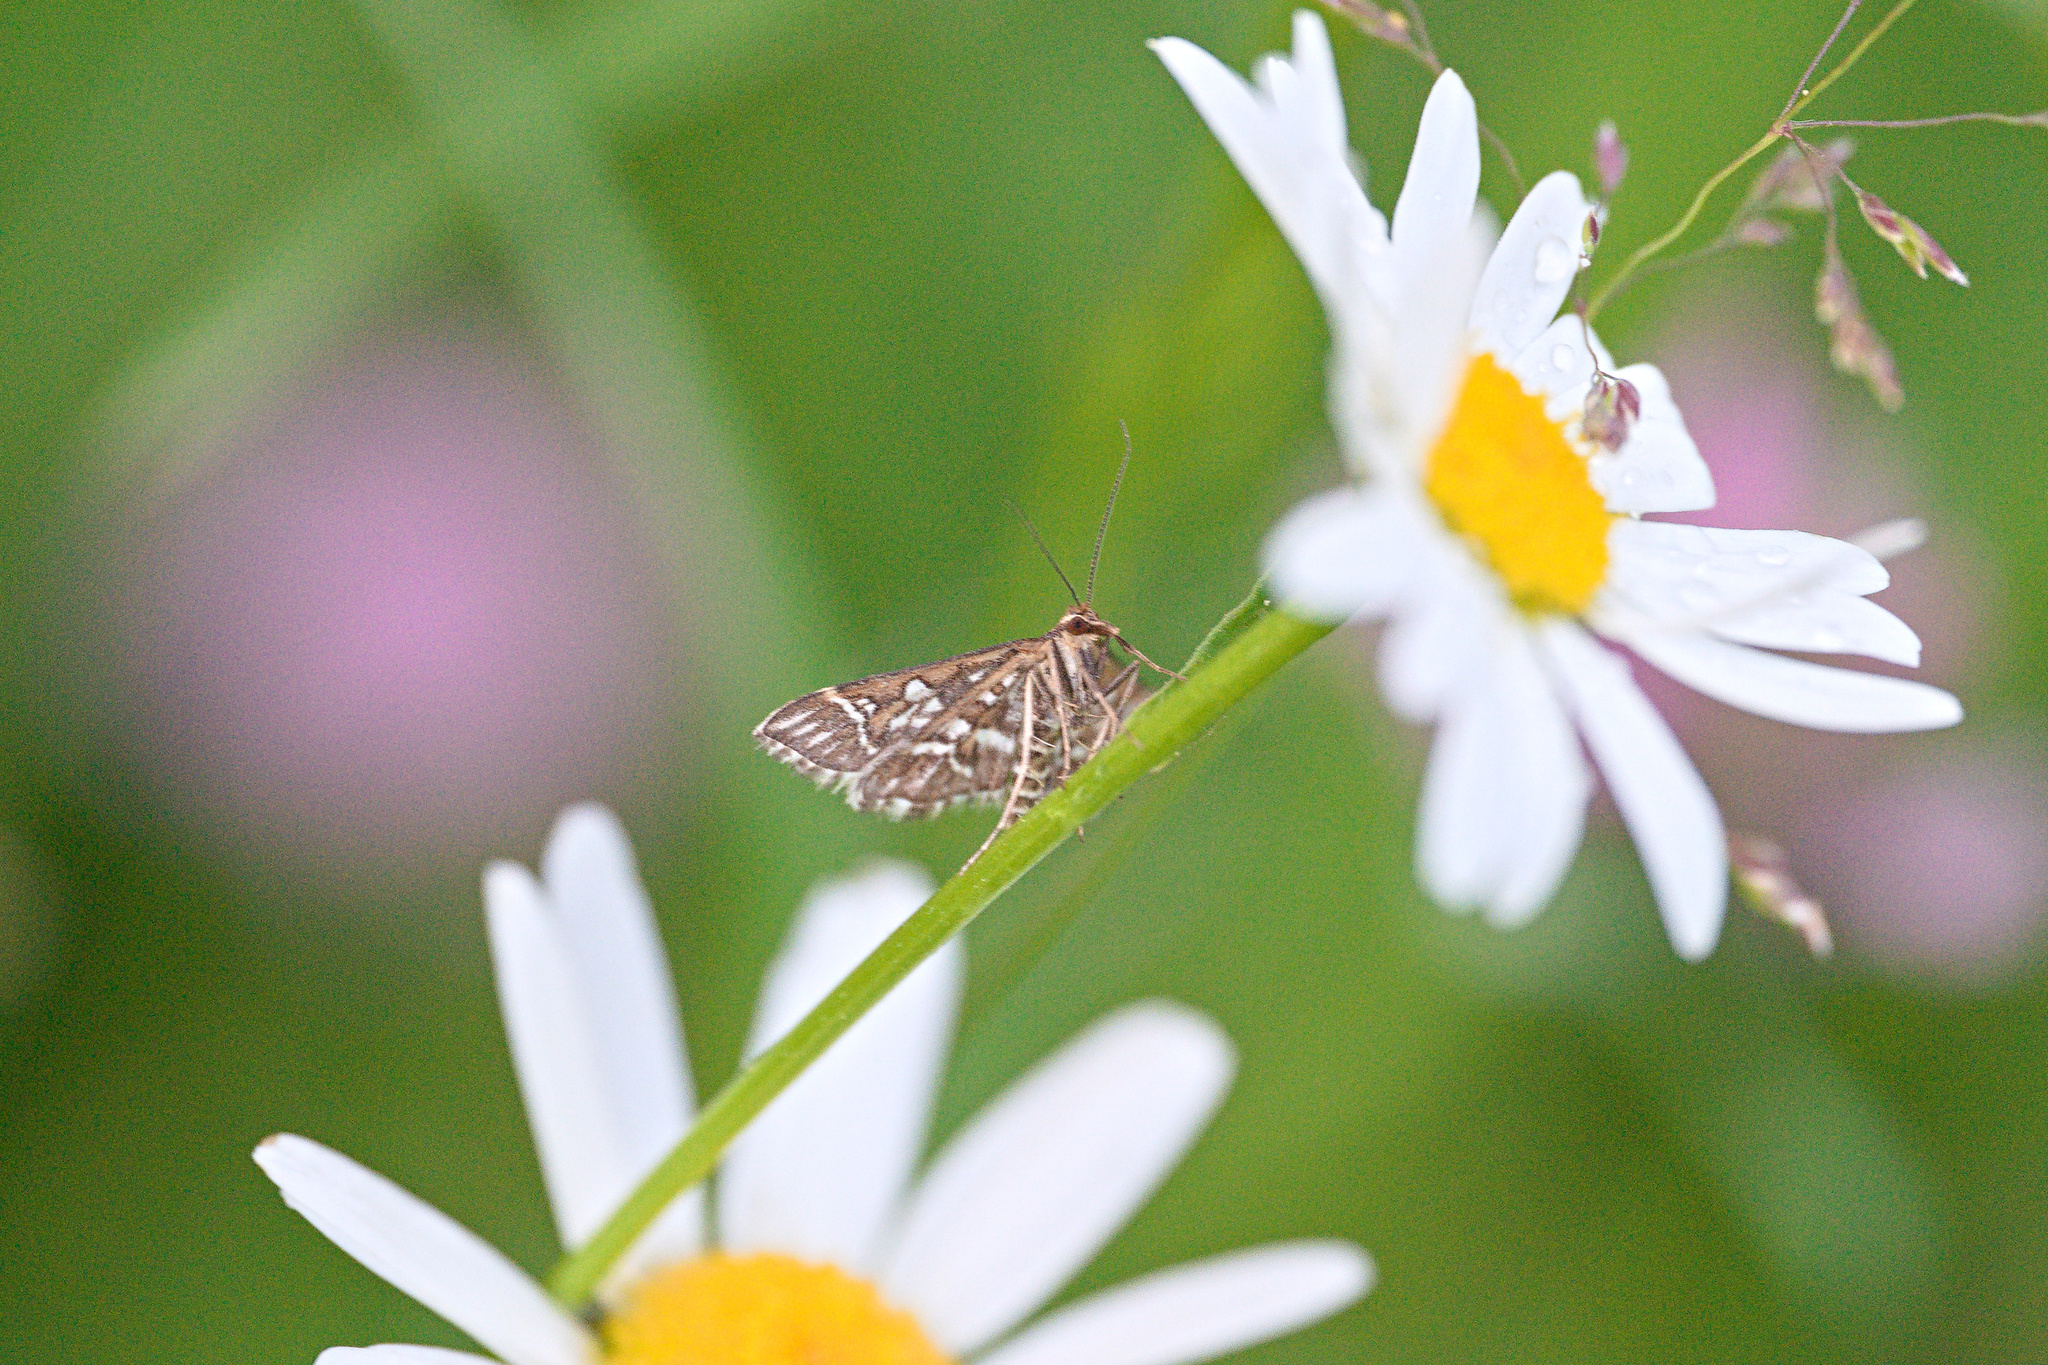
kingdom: Animalia
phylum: Arthropoda
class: Insecta
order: Lepidoptera
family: Crambidae
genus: Diasemia
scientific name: Diasemia reticularis
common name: Lettered china-mark
